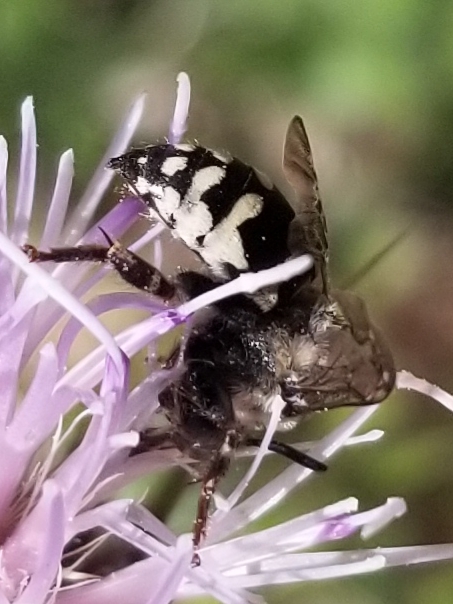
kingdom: Animalia
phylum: Arthropoda
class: Insecta
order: Hymenoptera
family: Apidae
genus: Brachymelecta
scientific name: Brachymelecta californica
